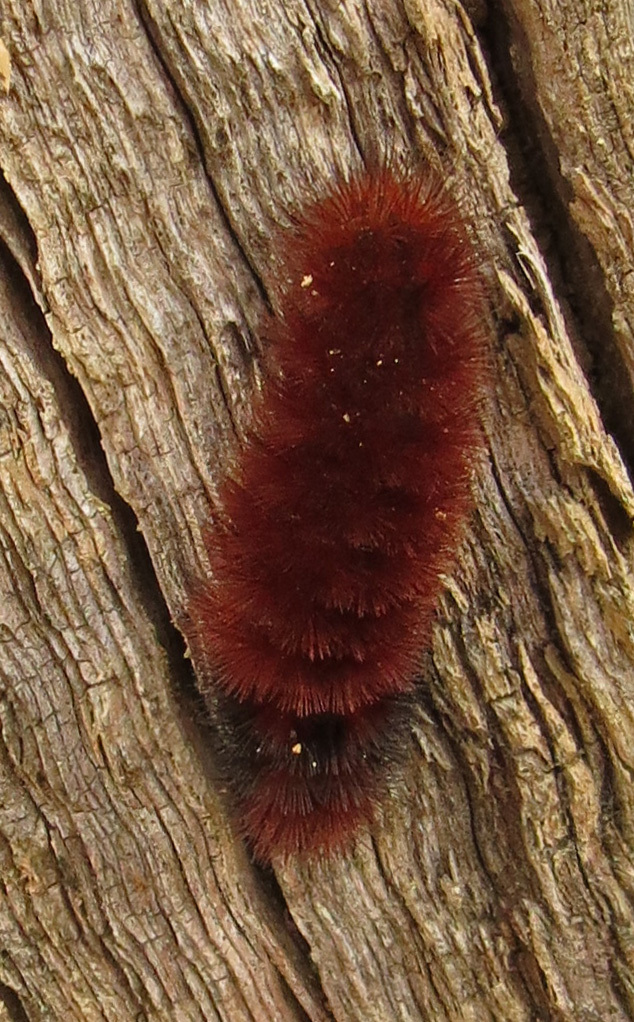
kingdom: Animalia
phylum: Arthropoda
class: Insecta
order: Lepidoptera
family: Erebidae
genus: Pyrrharctia
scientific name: Pyrrharctia isabella
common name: Isabella tiger moth
